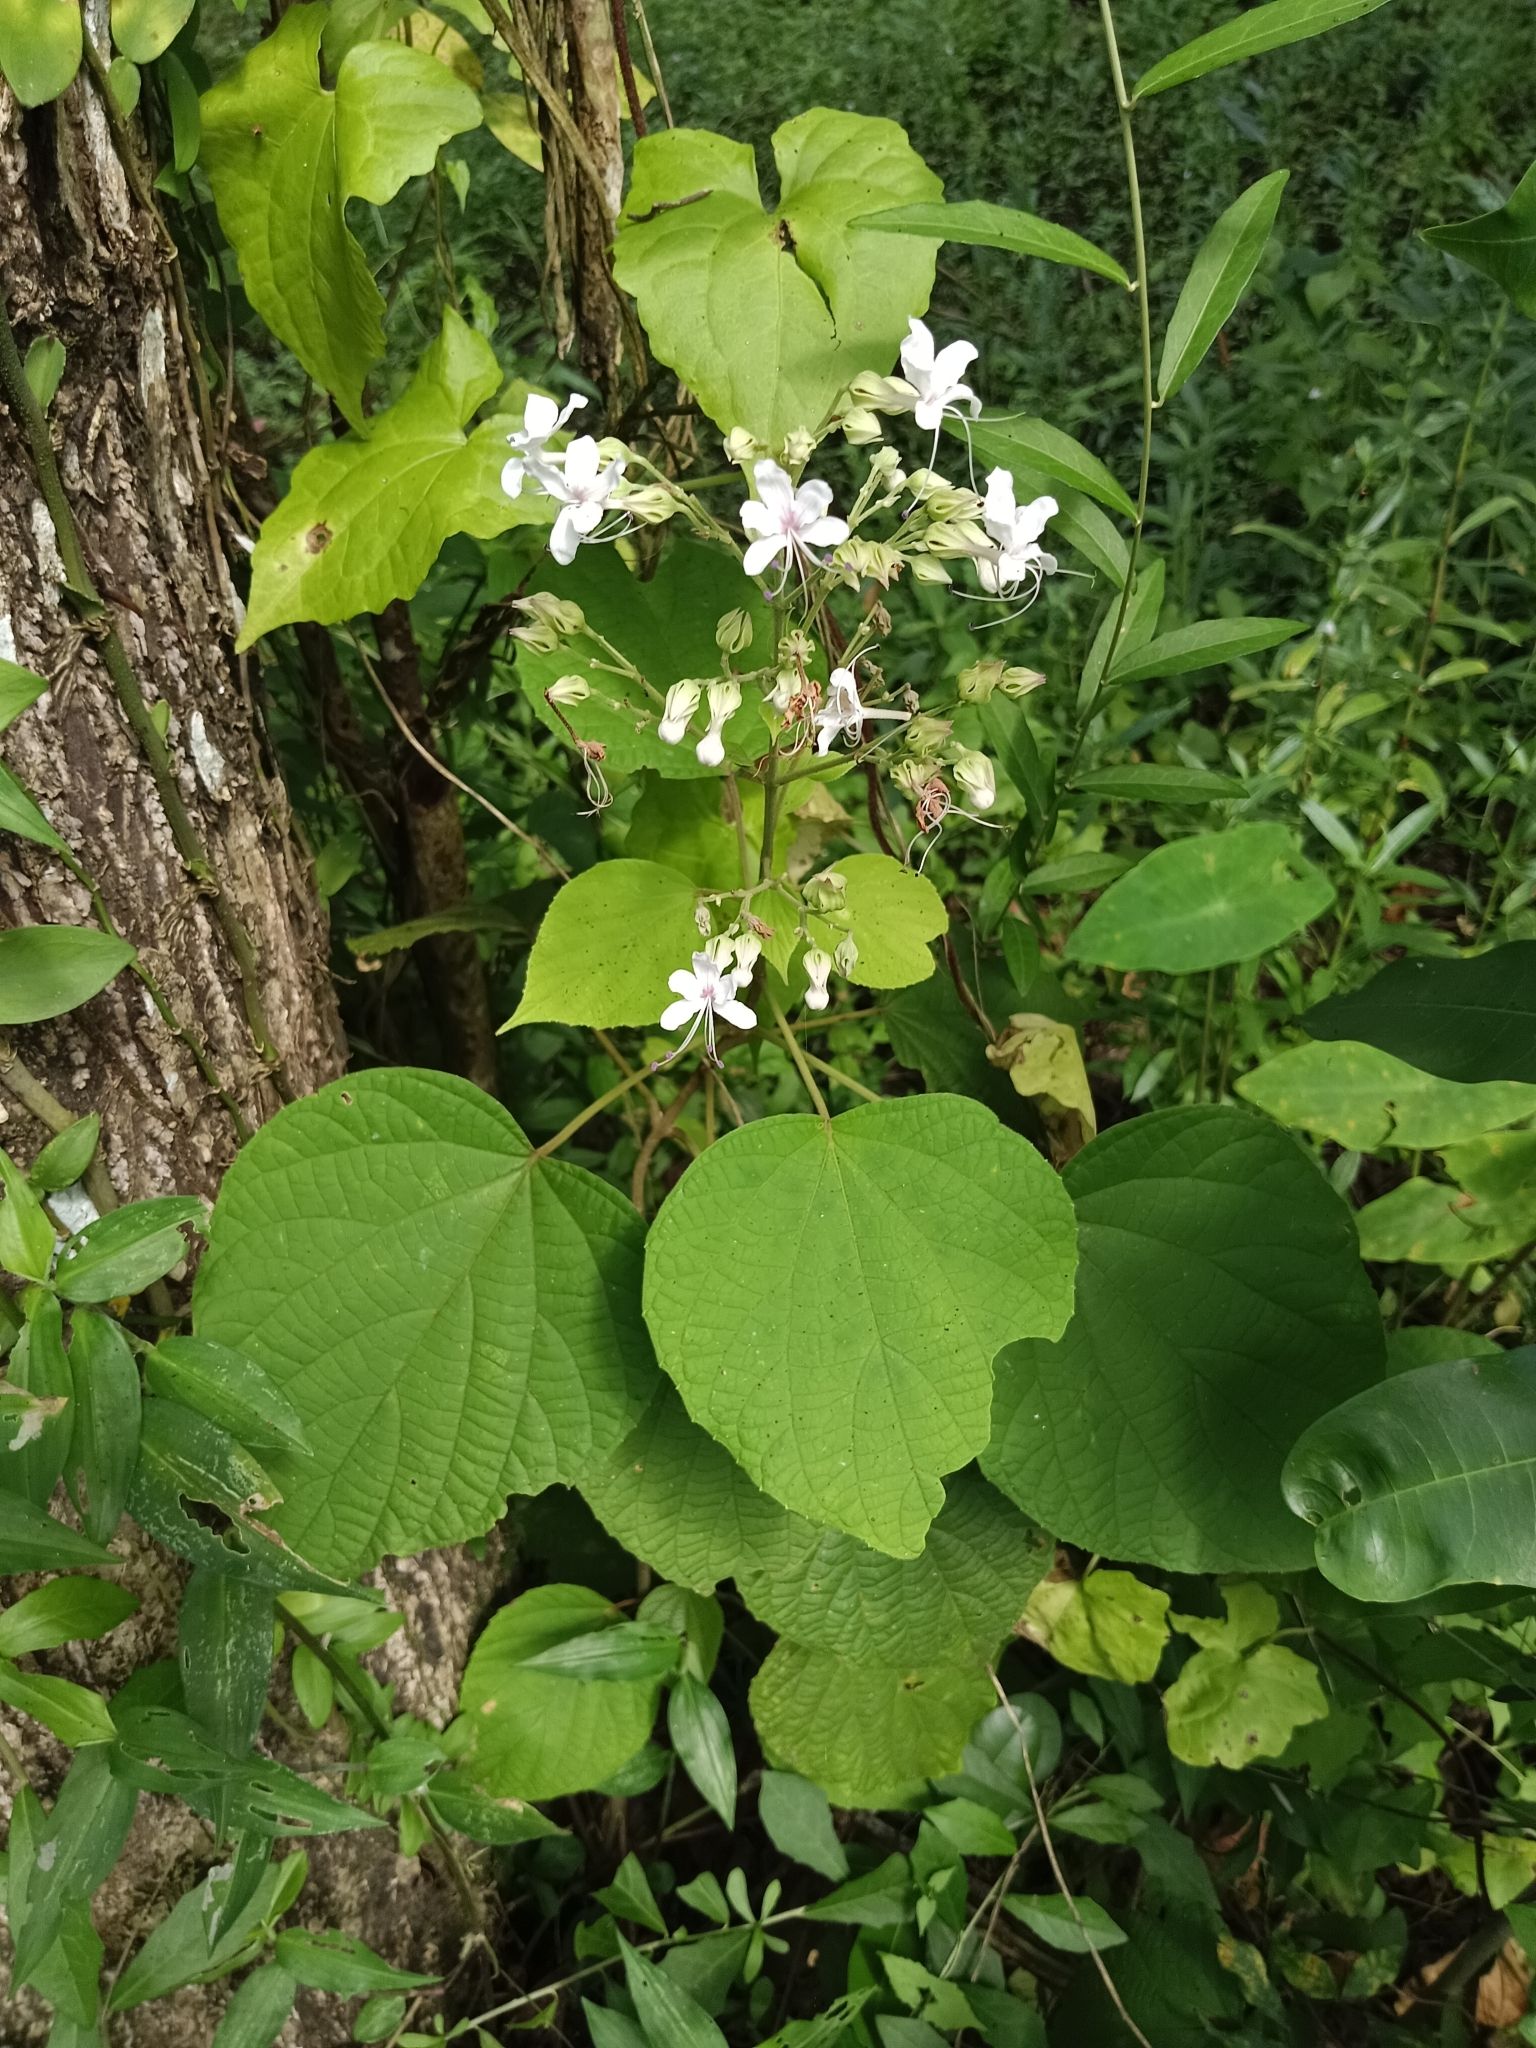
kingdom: Plantae
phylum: Tracheophyta
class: Magnoliopsida
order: Lamiales
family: Lamiaceae
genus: Clerodendrum
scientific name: Clerodendrum infortunatum
